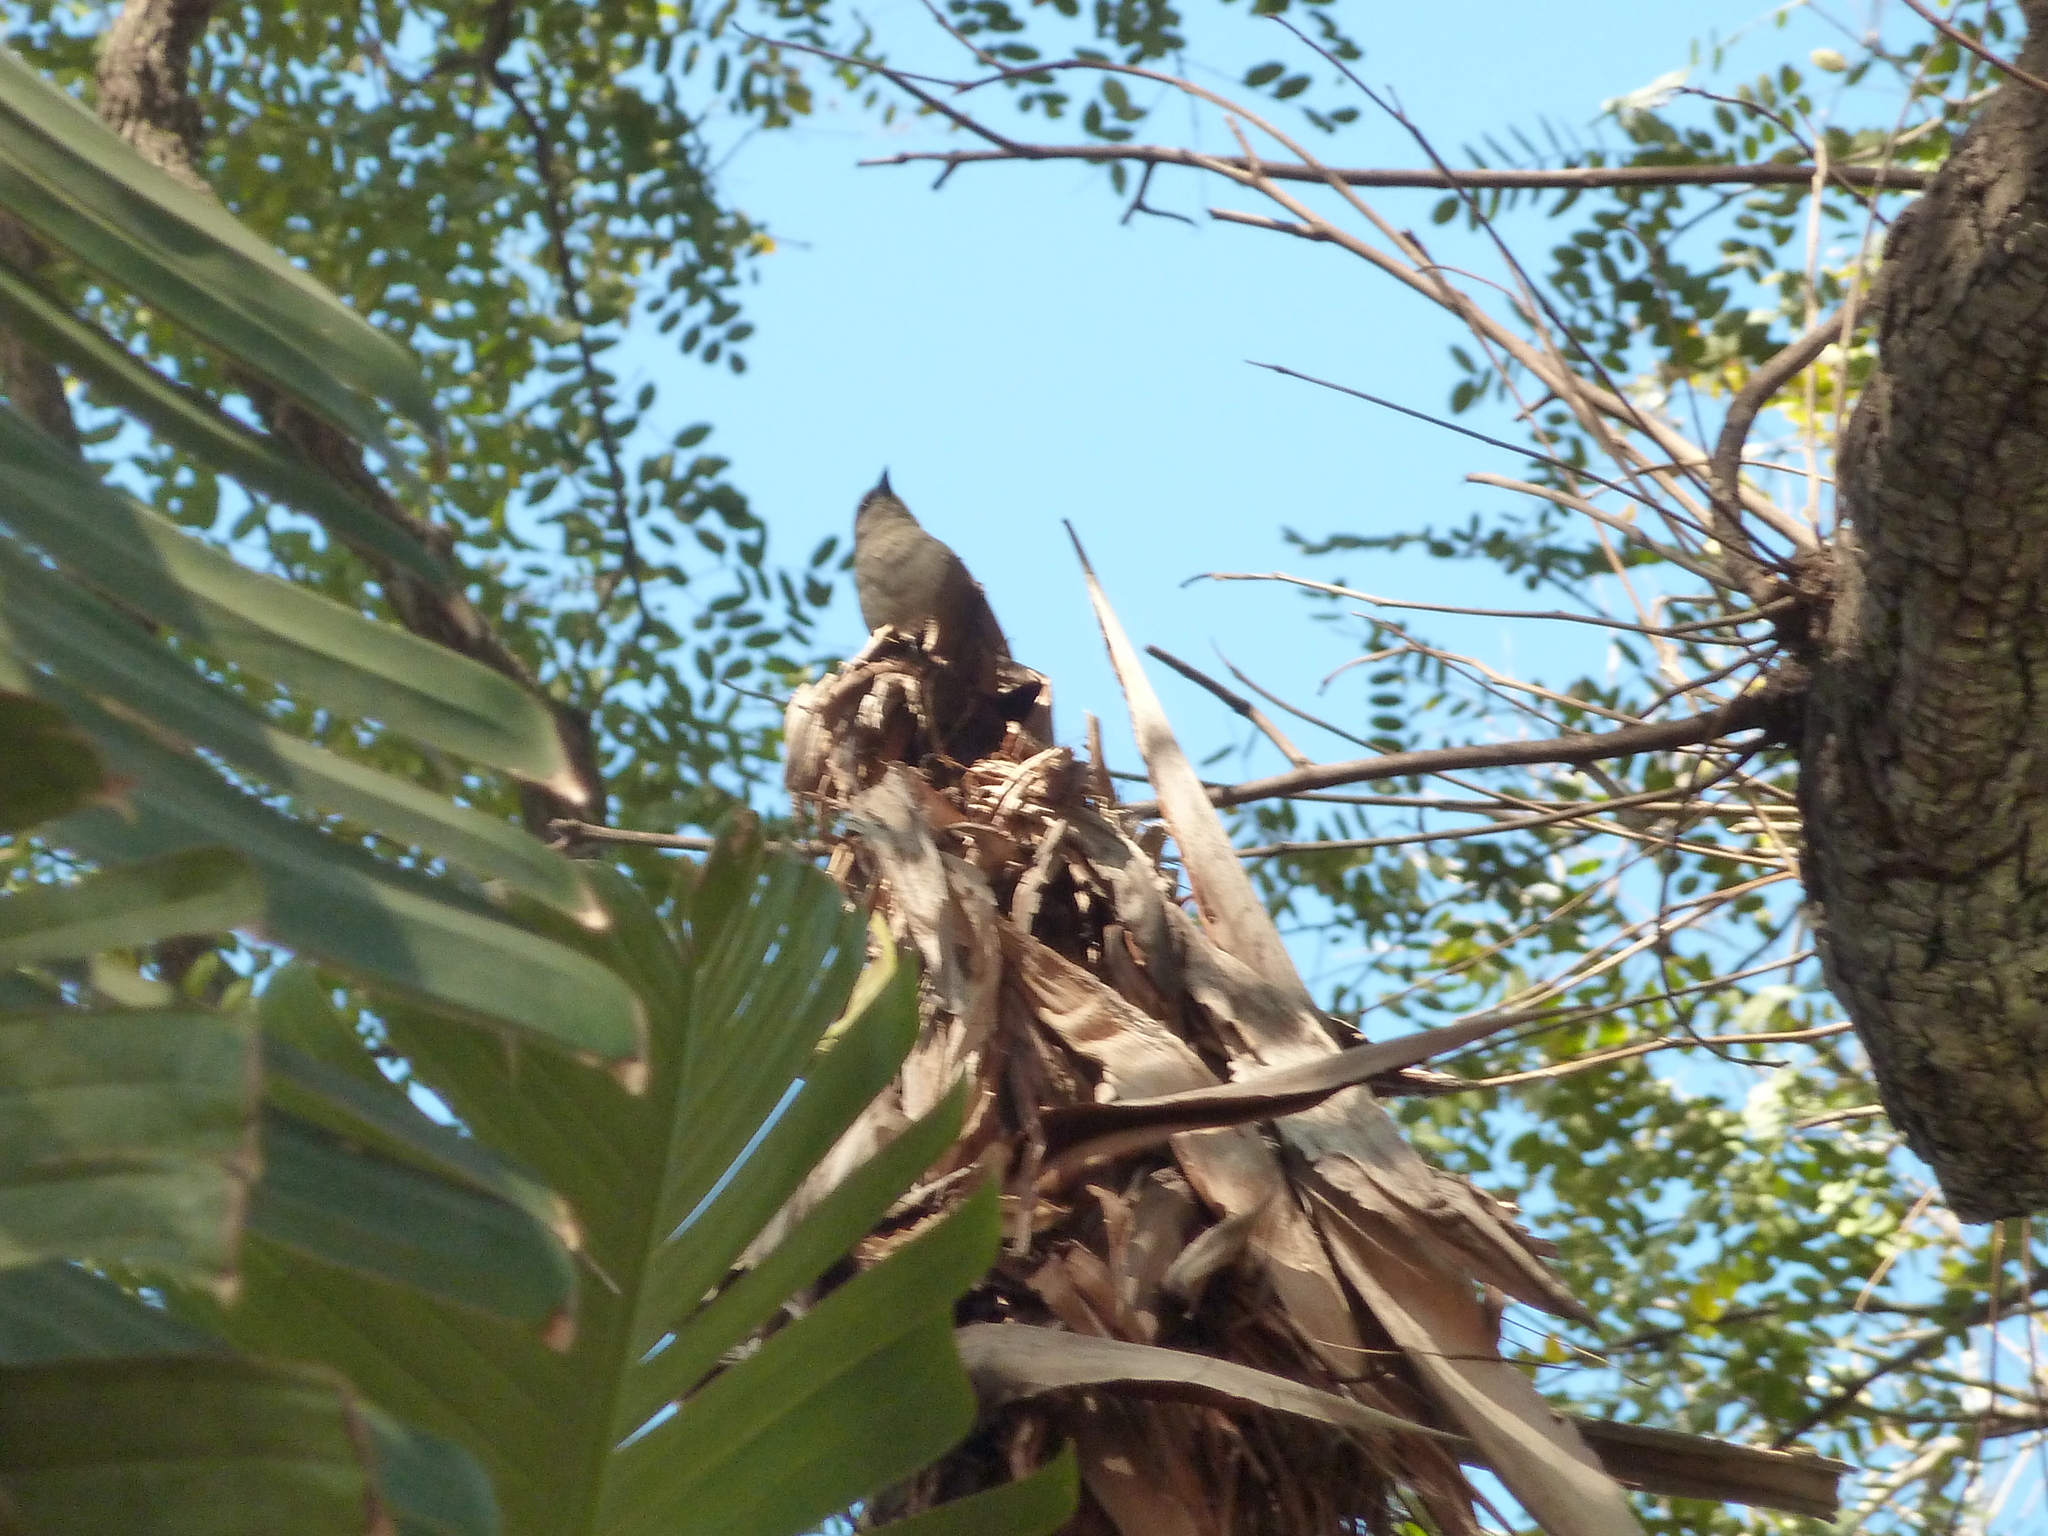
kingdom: Animalia
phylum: Chordata
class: Aves
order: Passeriformes
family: Icteridae
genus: Agelaioides
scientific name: Agelaioides badius
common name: Baywing
